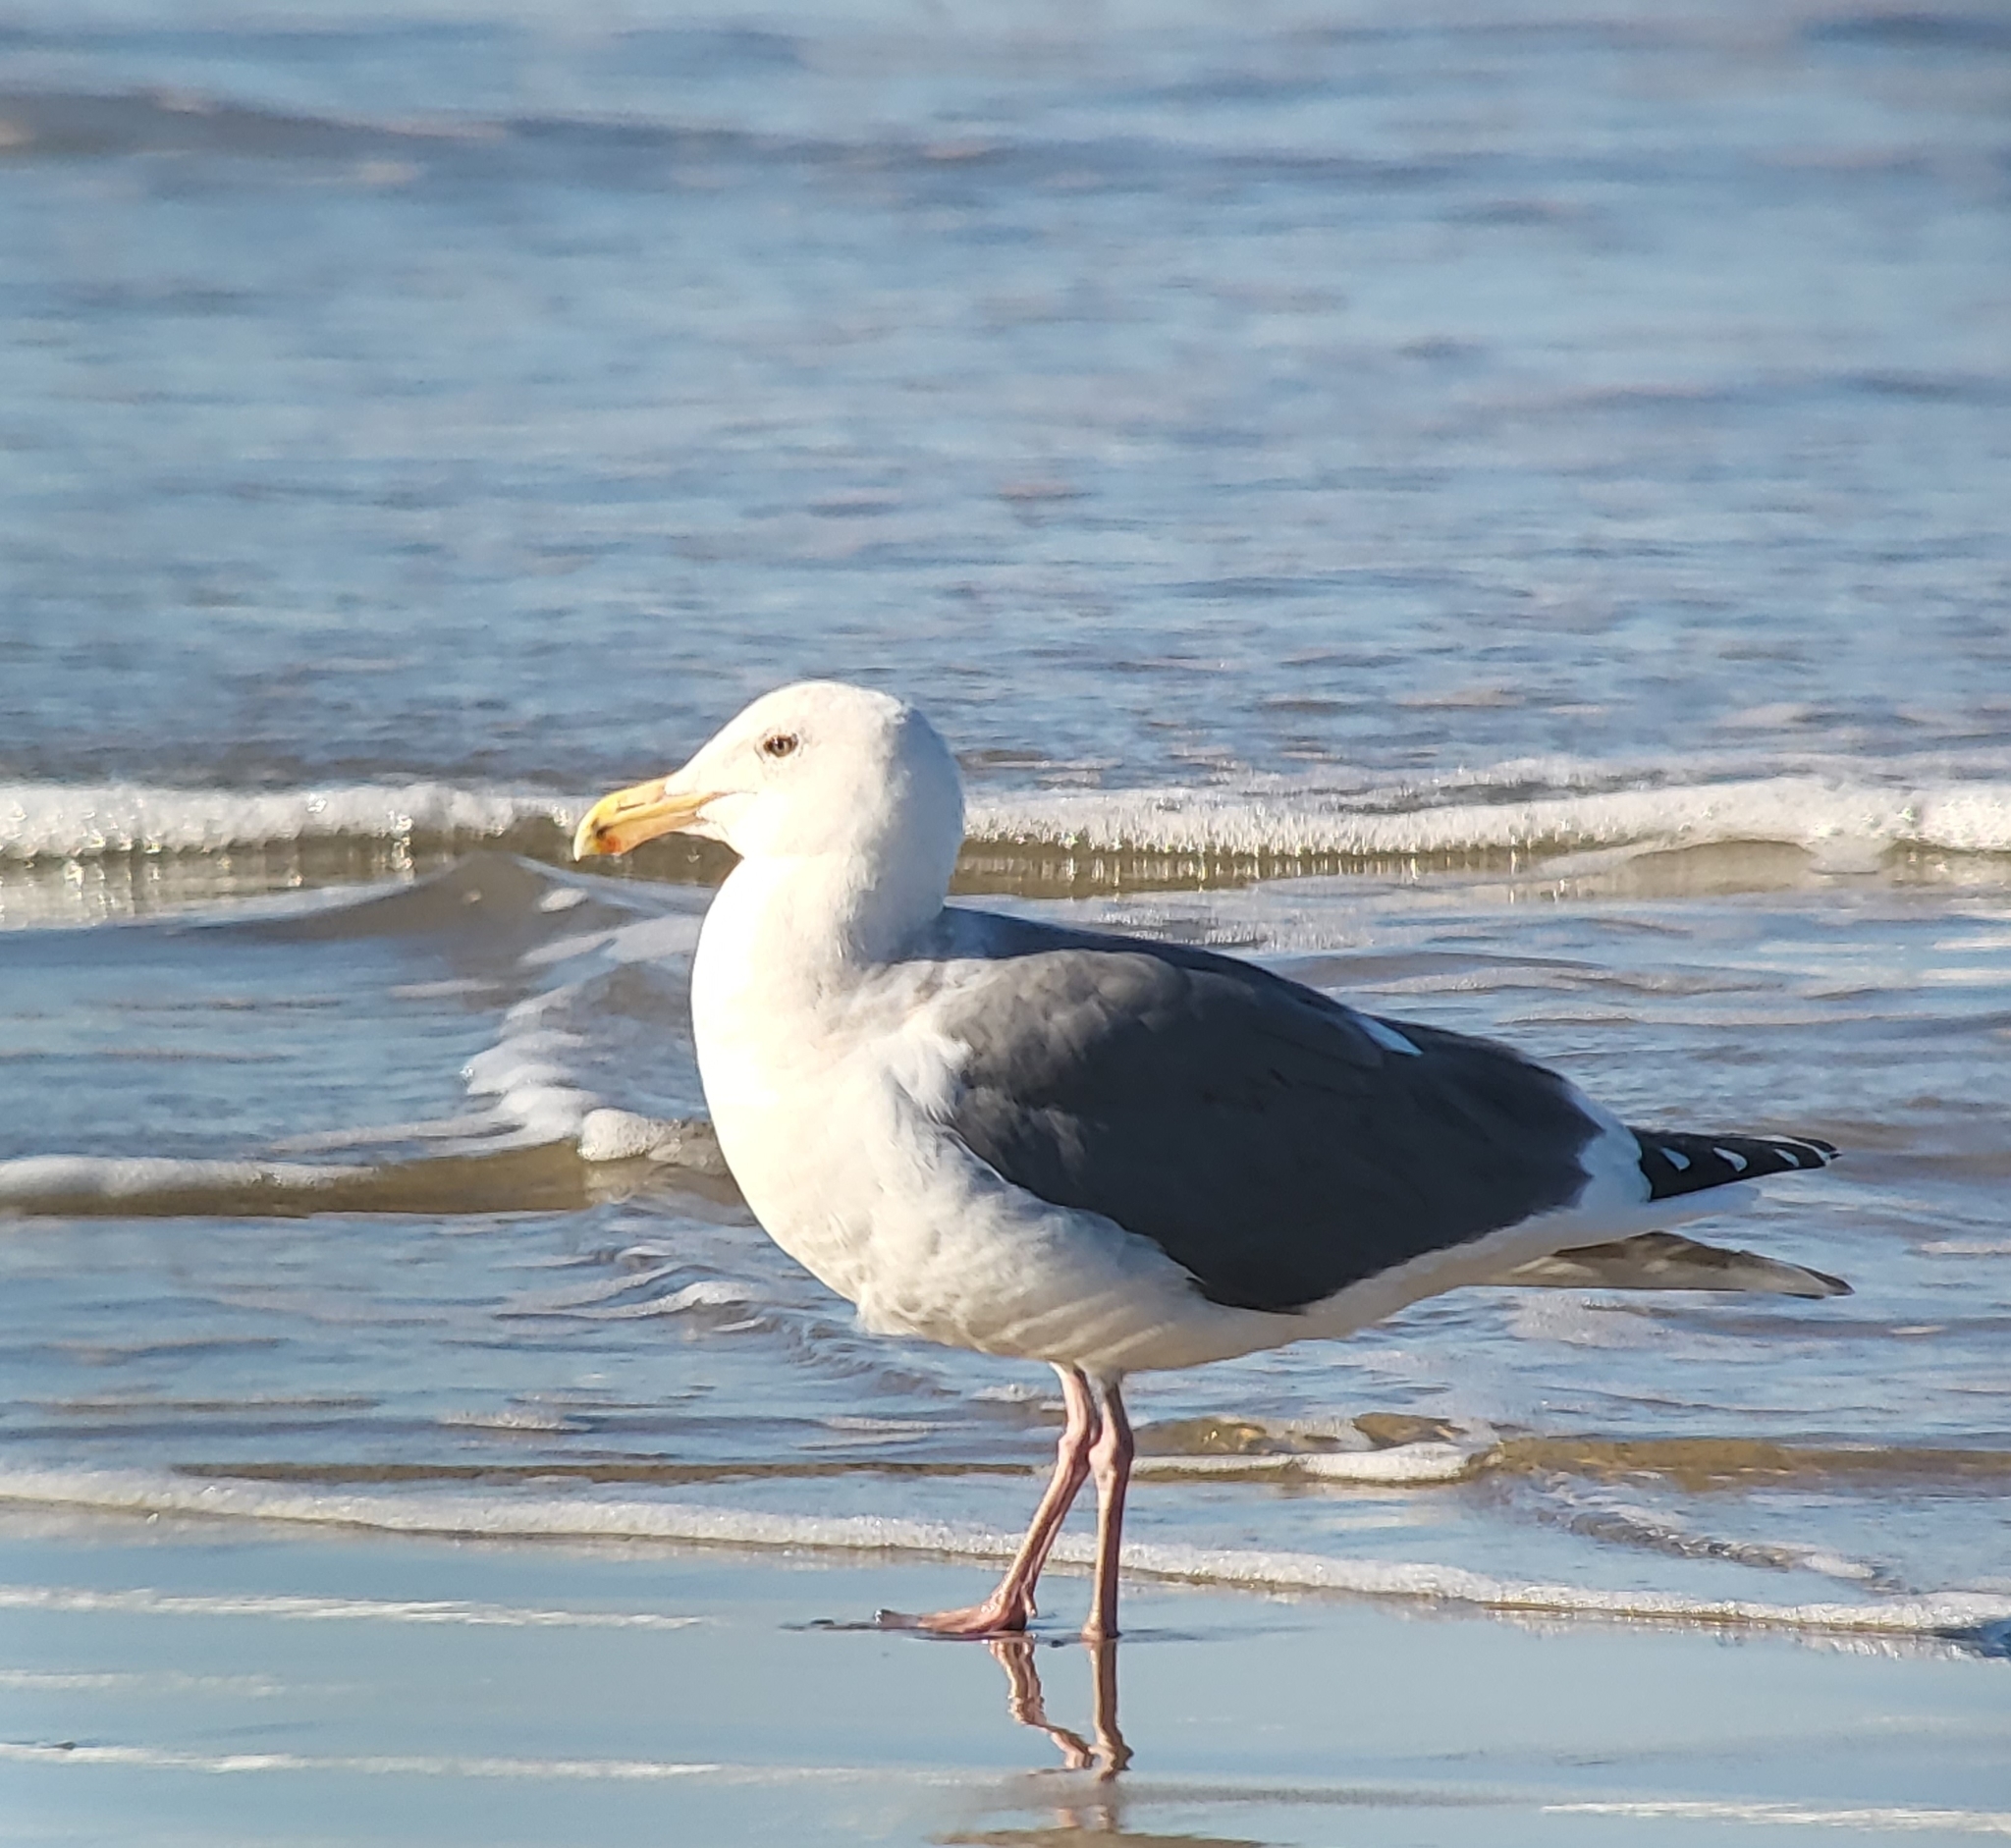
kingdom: Animalia
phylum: Chordata
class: Aves
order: Charadriiformes
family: Laridae
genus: Larus
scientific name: Larus occidentalis
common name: Western gull
